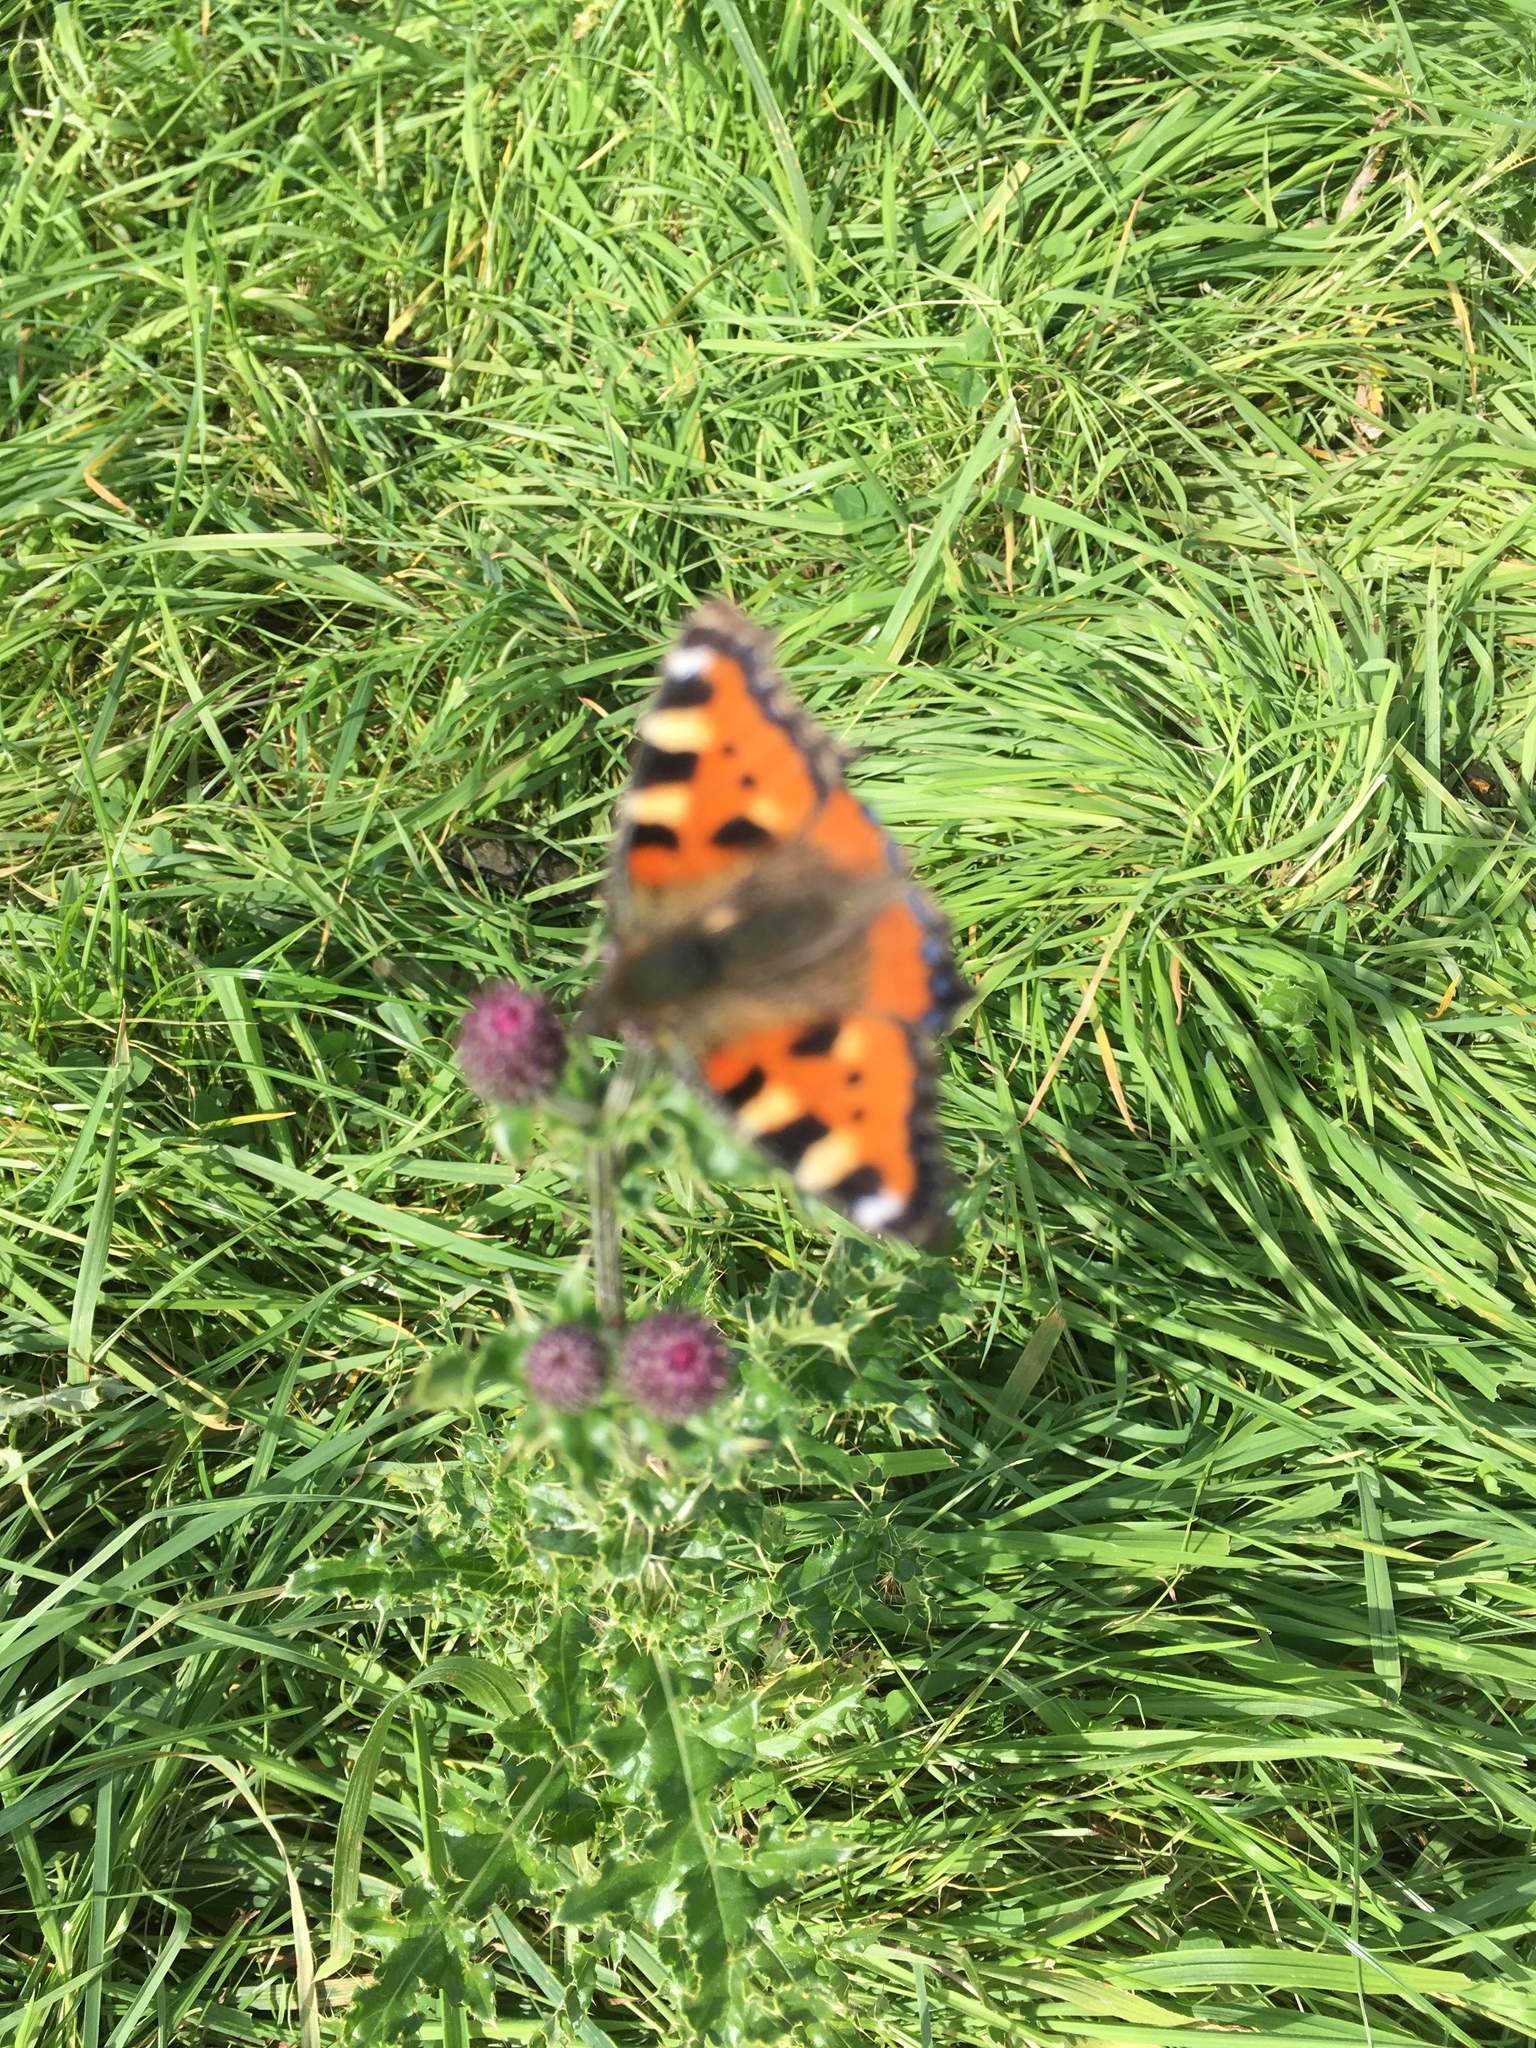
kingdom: Animalia
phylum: Arthropoda
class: Insecta
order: Lepidoptera
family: Nymphalidae
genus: Aglais
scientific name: Aglais urticae
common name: Small tortoiseshell
